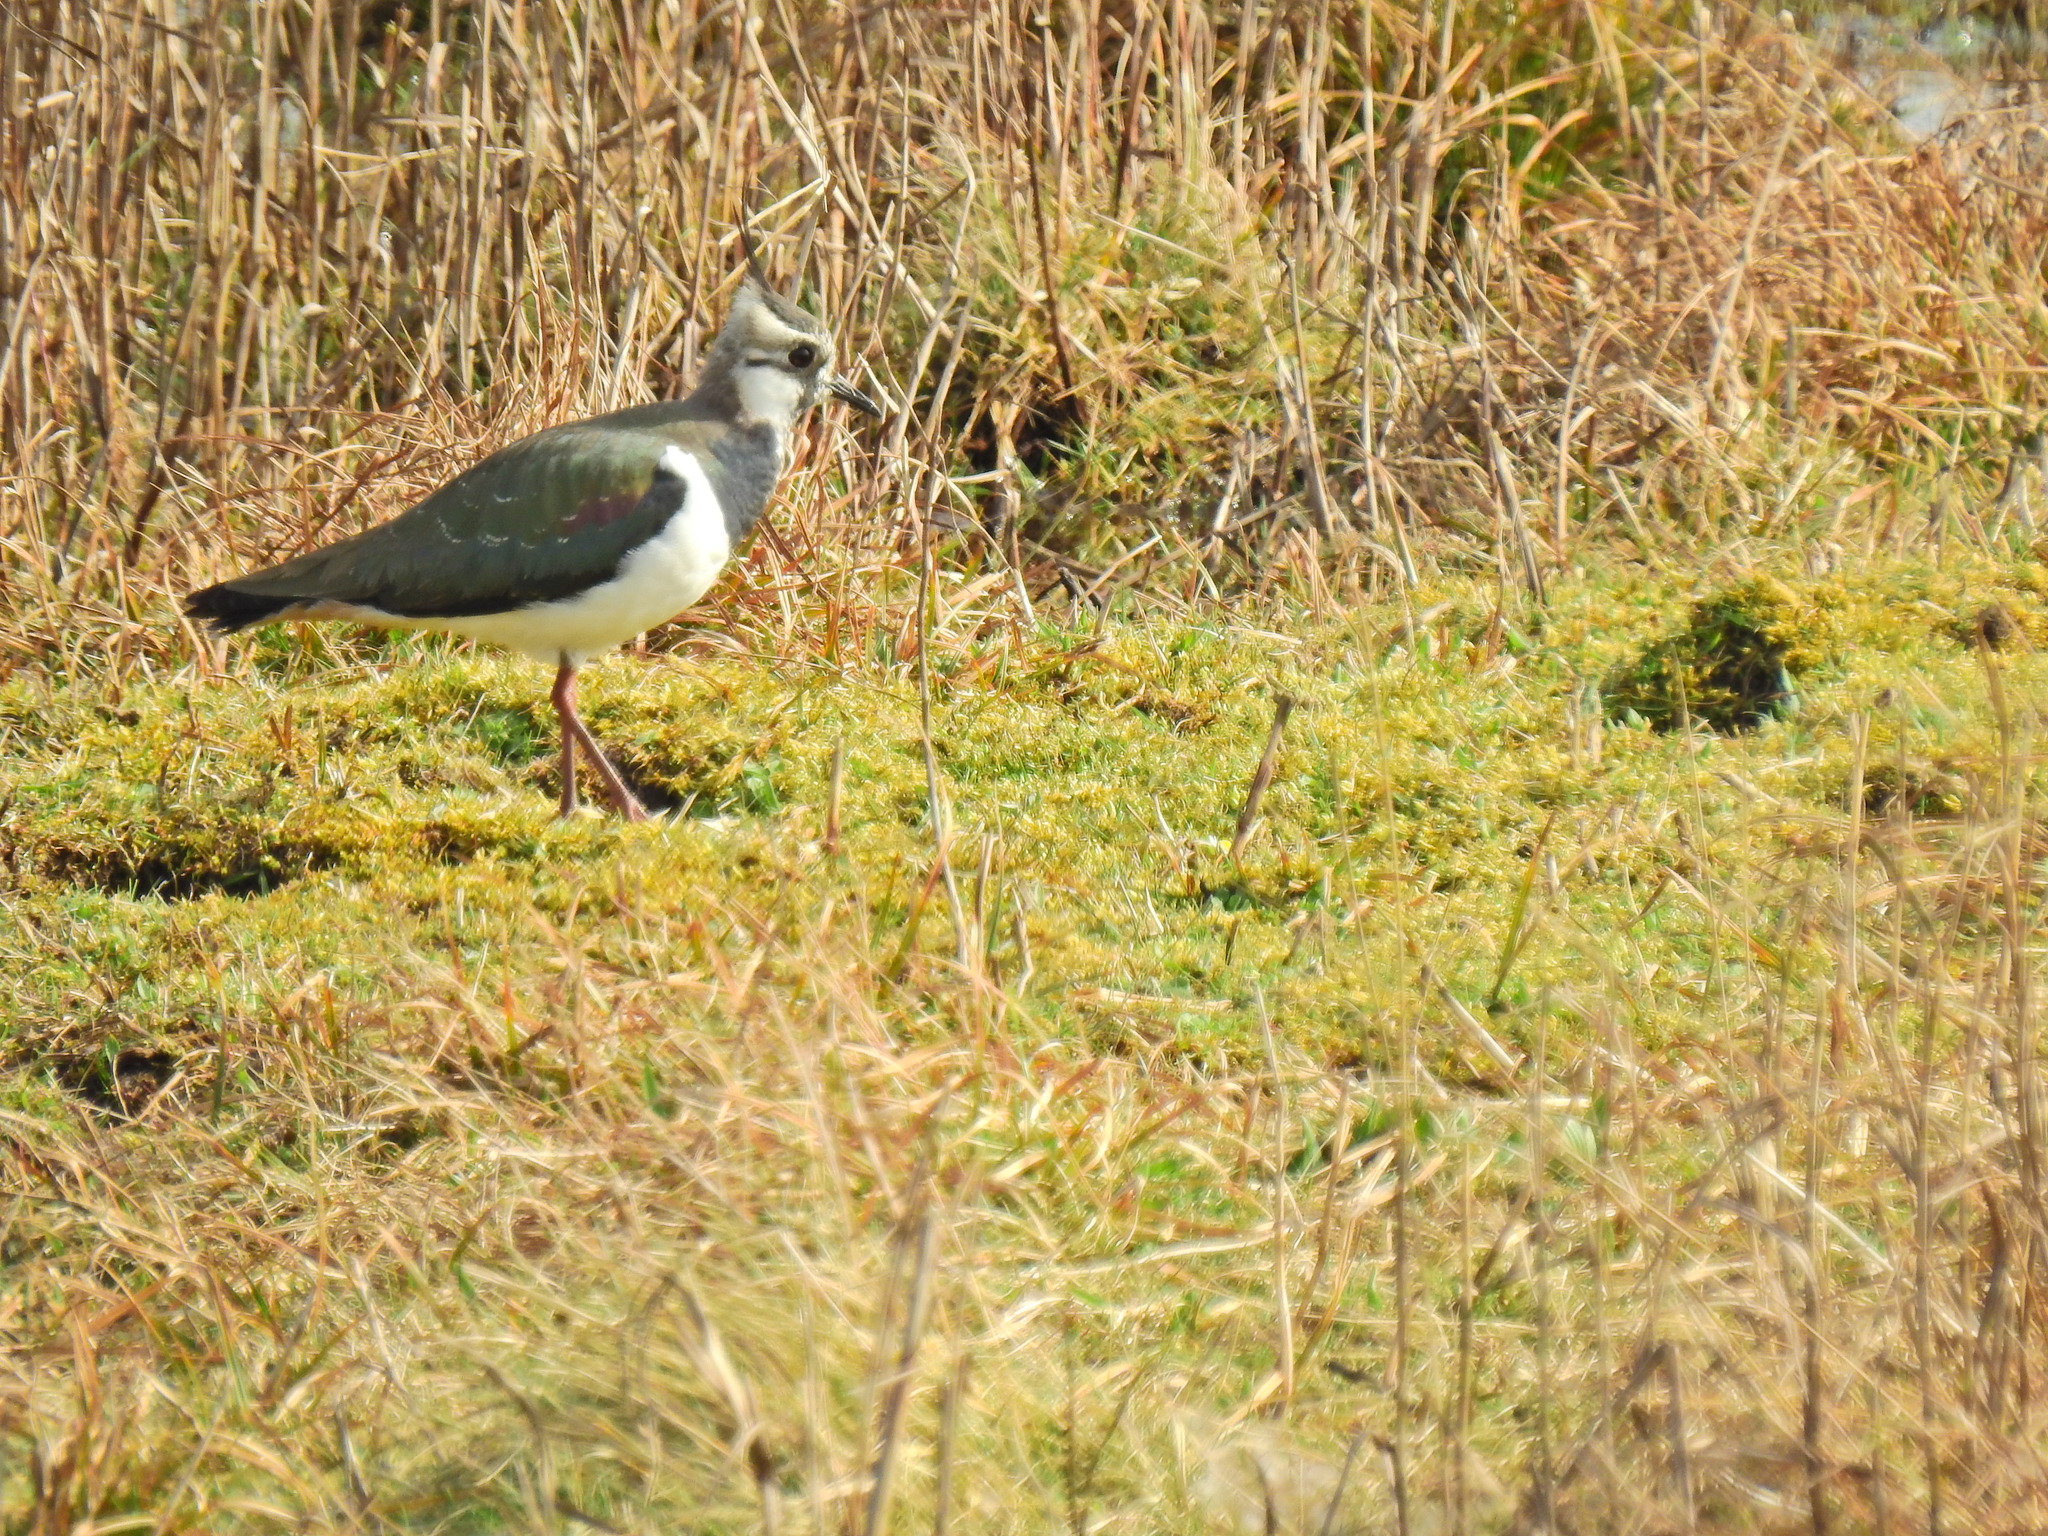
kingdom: Animalia
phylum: Chordata
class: Aves
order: Charadriiformes
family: Charadriidae
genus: Vanellus
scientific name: Vanellus vanellus
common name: Northern lapwing
